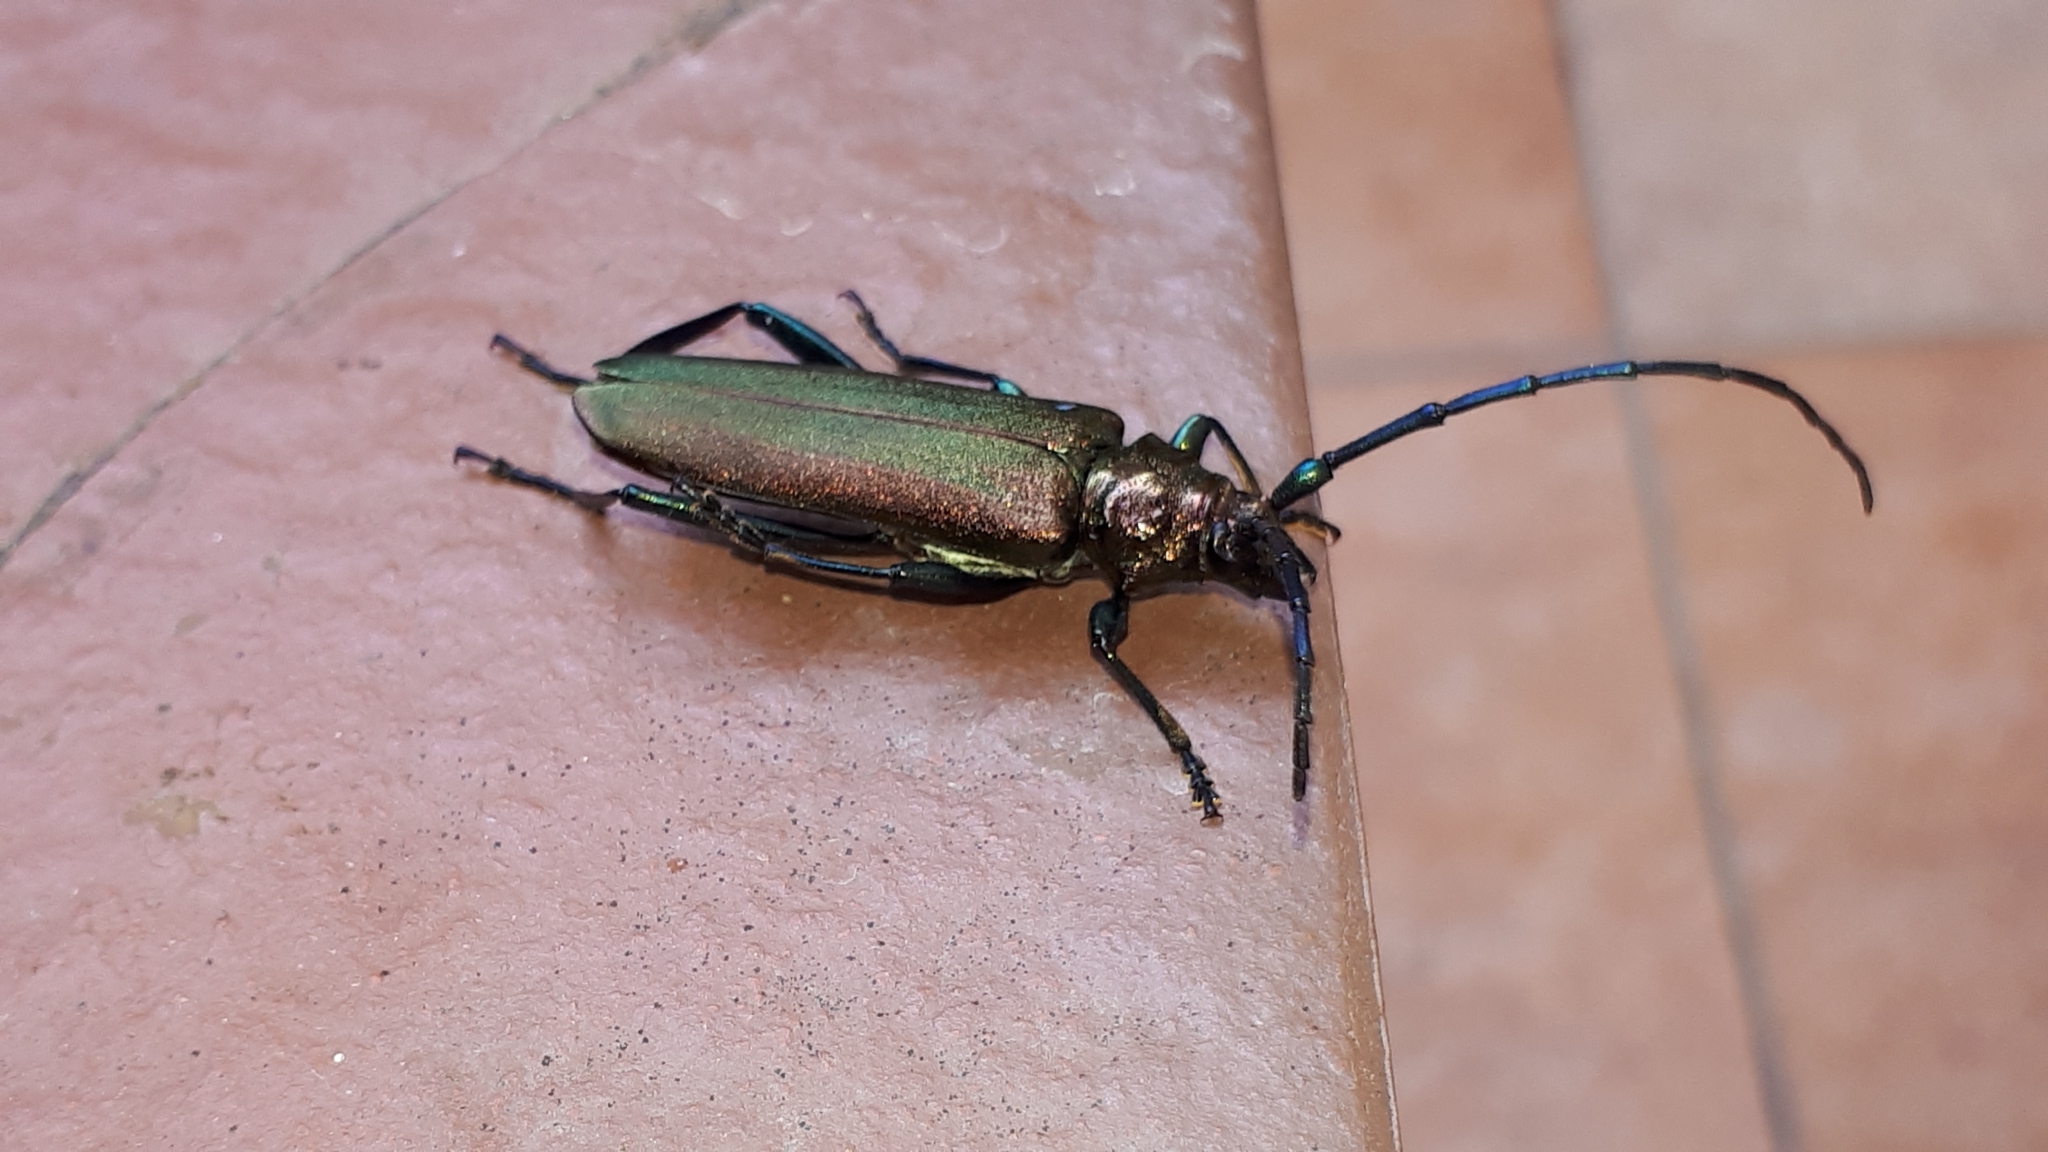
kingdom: Animalia
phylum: Arthropoda
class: Insecta
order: Coleoptera
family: Cerambycidae
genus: Aromia
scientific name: Aromia moschata
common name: Musk beetle
